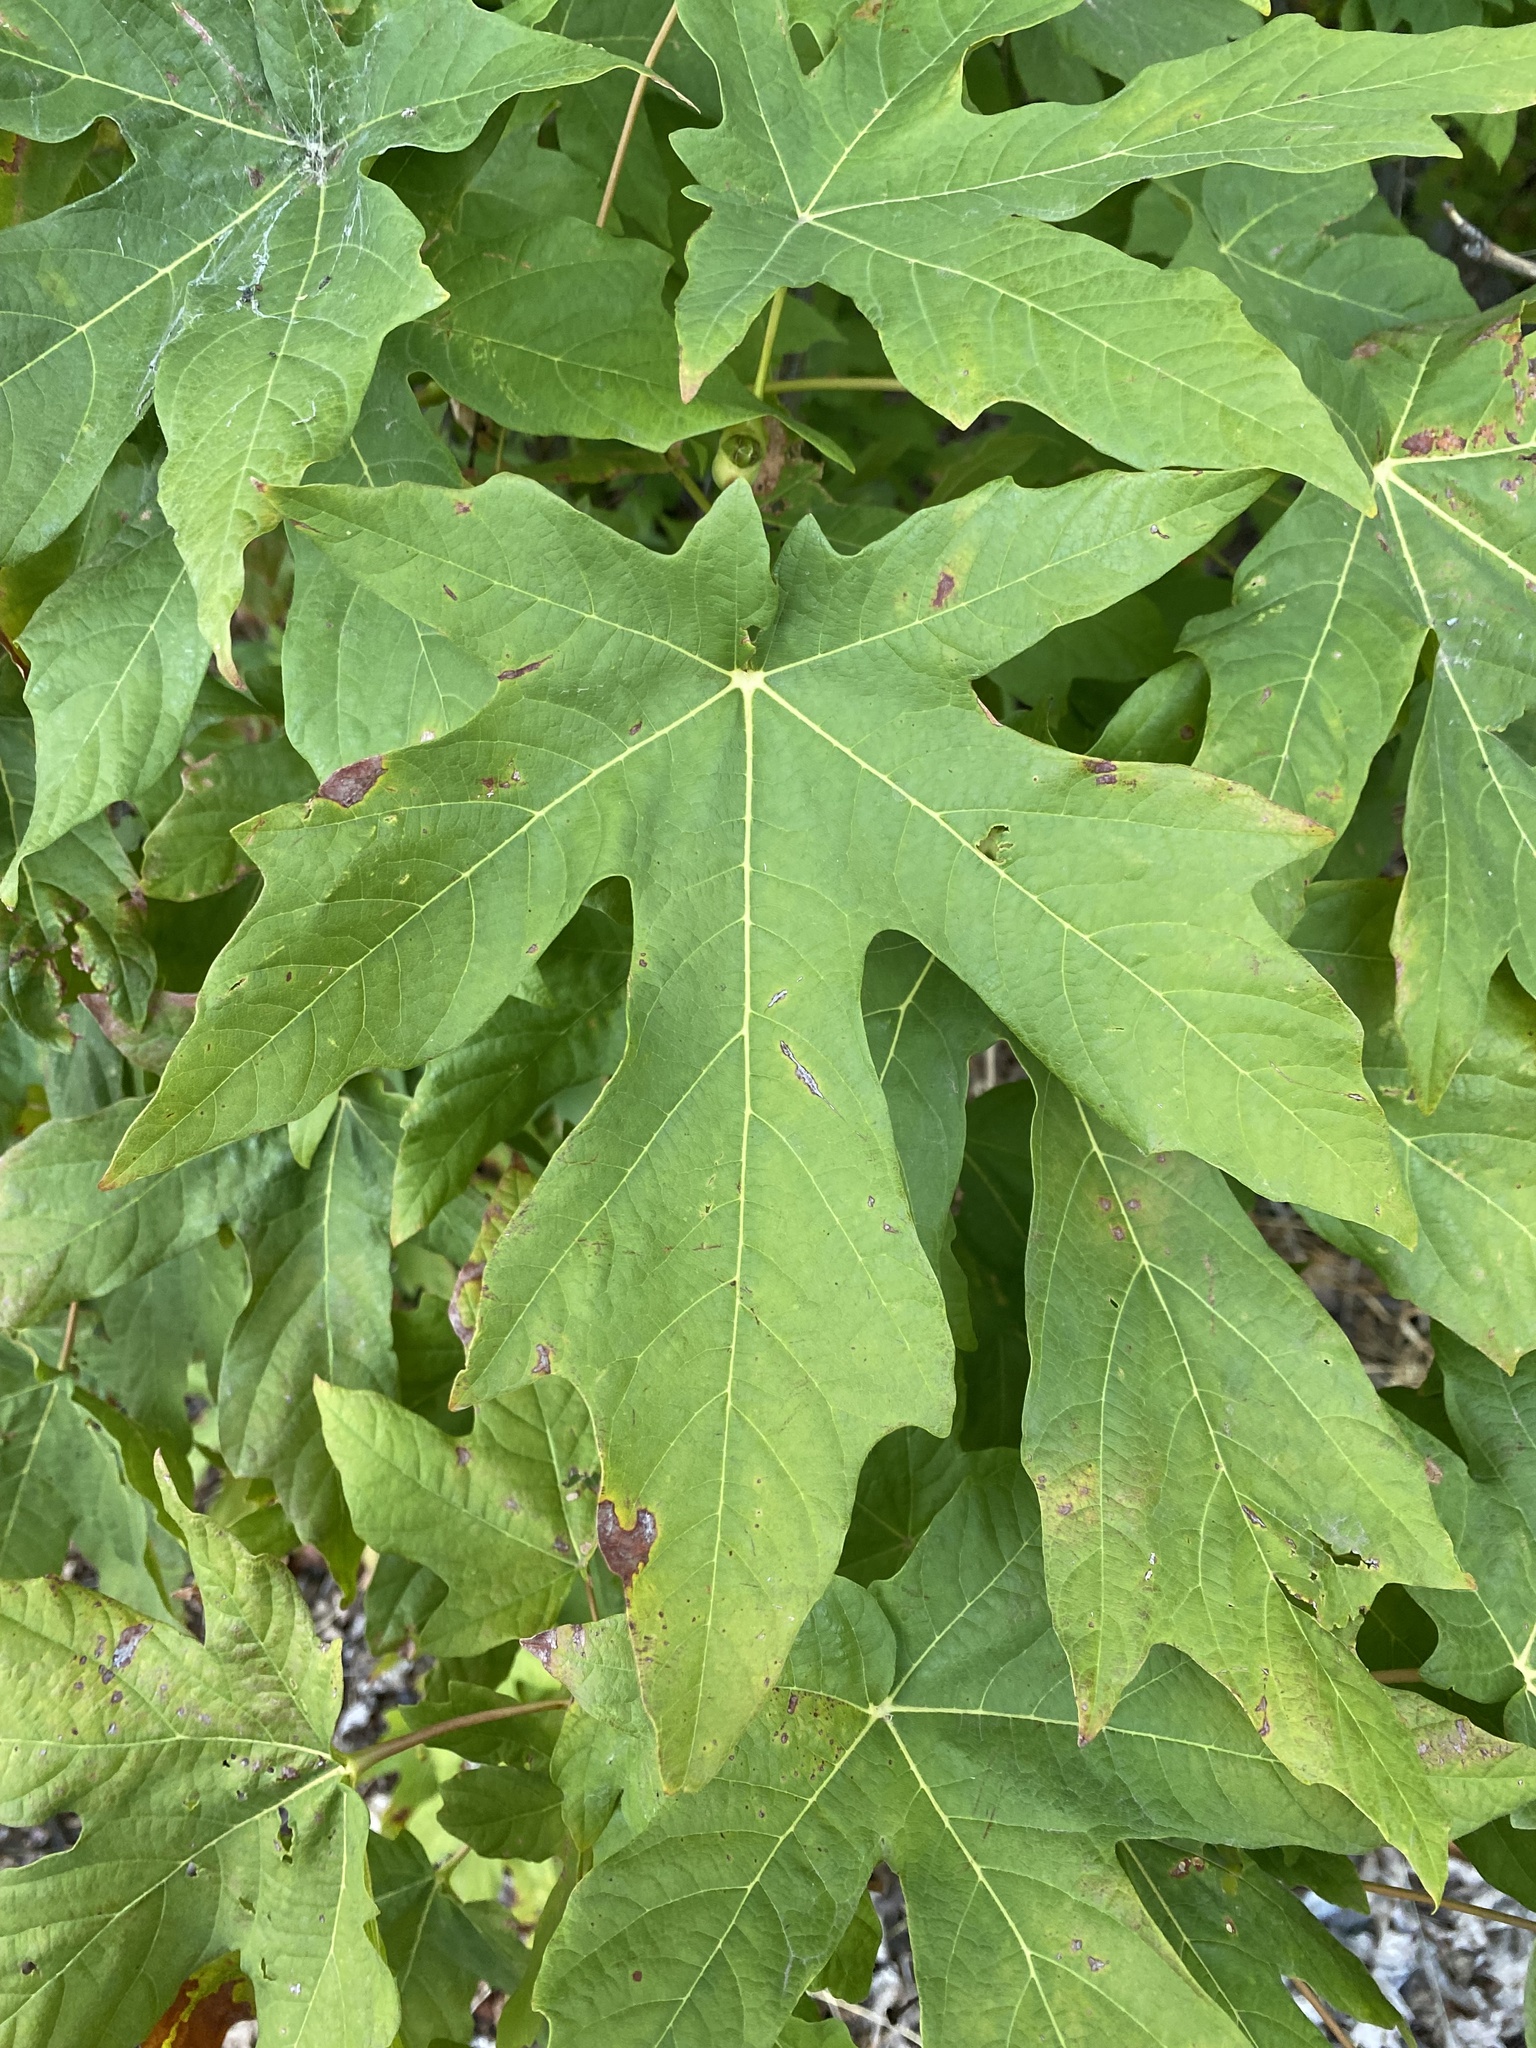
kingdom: Plantae
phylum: Tracheophyta
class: Magnoliopsida
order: Sapindales
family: Sapindaceae
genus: Acer
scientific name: Acer macrophyllum
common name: Oregon maple
